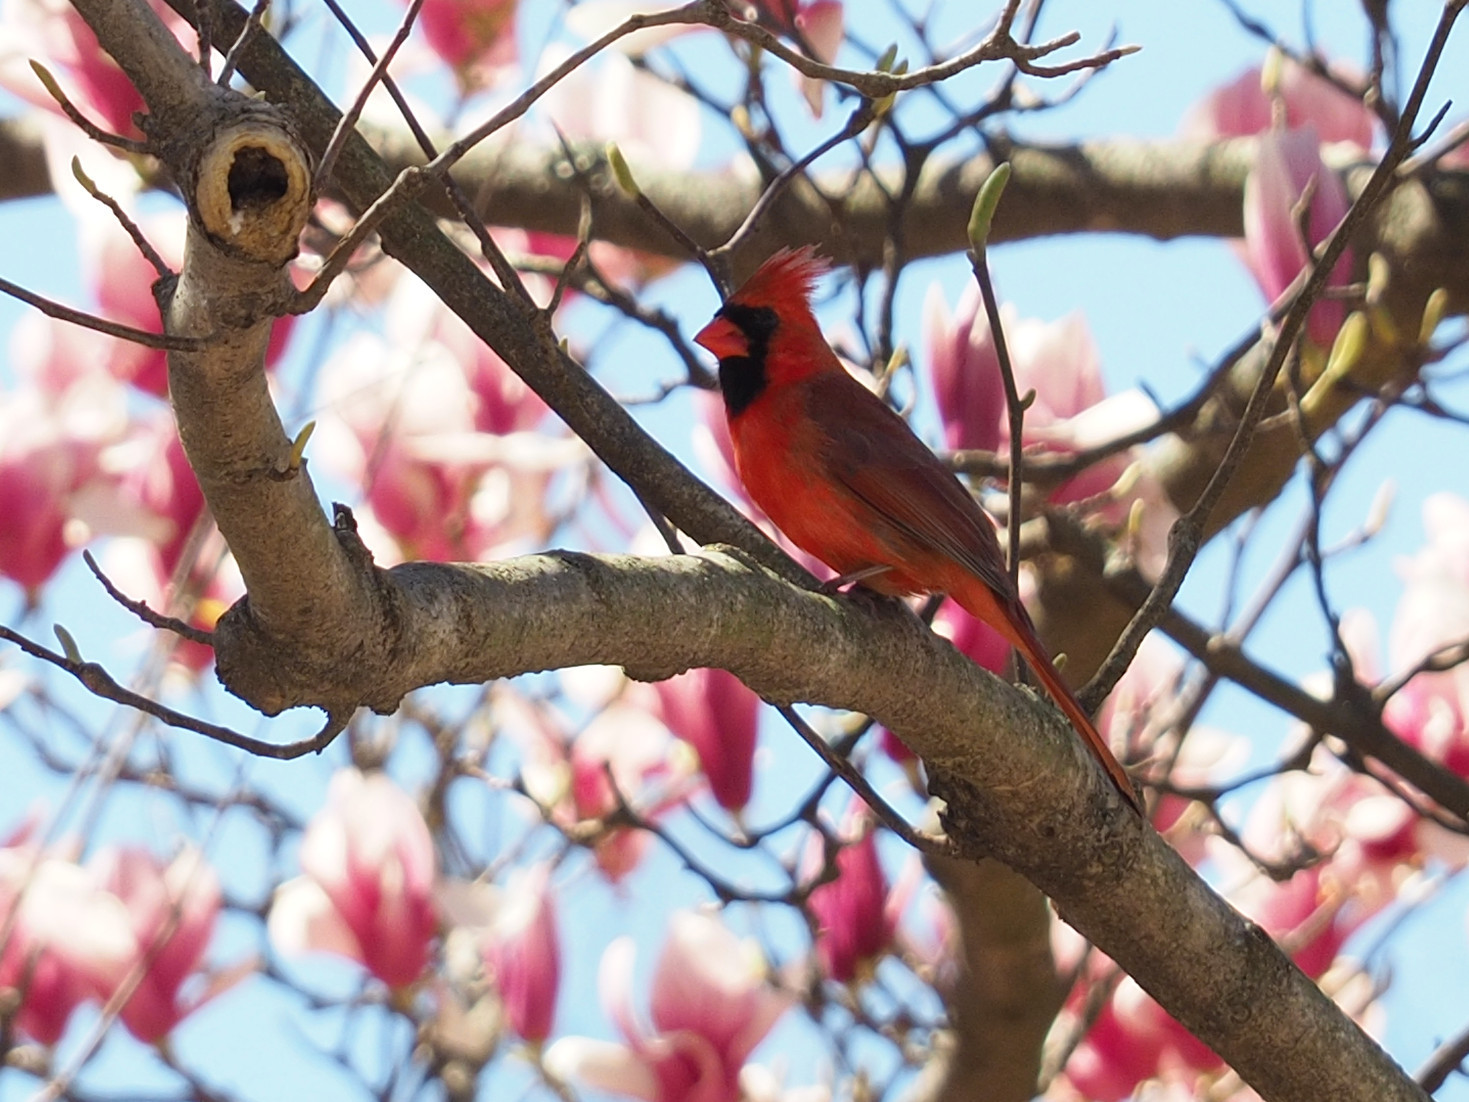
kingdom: Animalia
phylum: Chordata
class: Aves
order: Passeriformes
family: Cardinalidae
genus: Cardinalis
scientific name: Cardinalis cardinalis
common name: Northern cardinal
